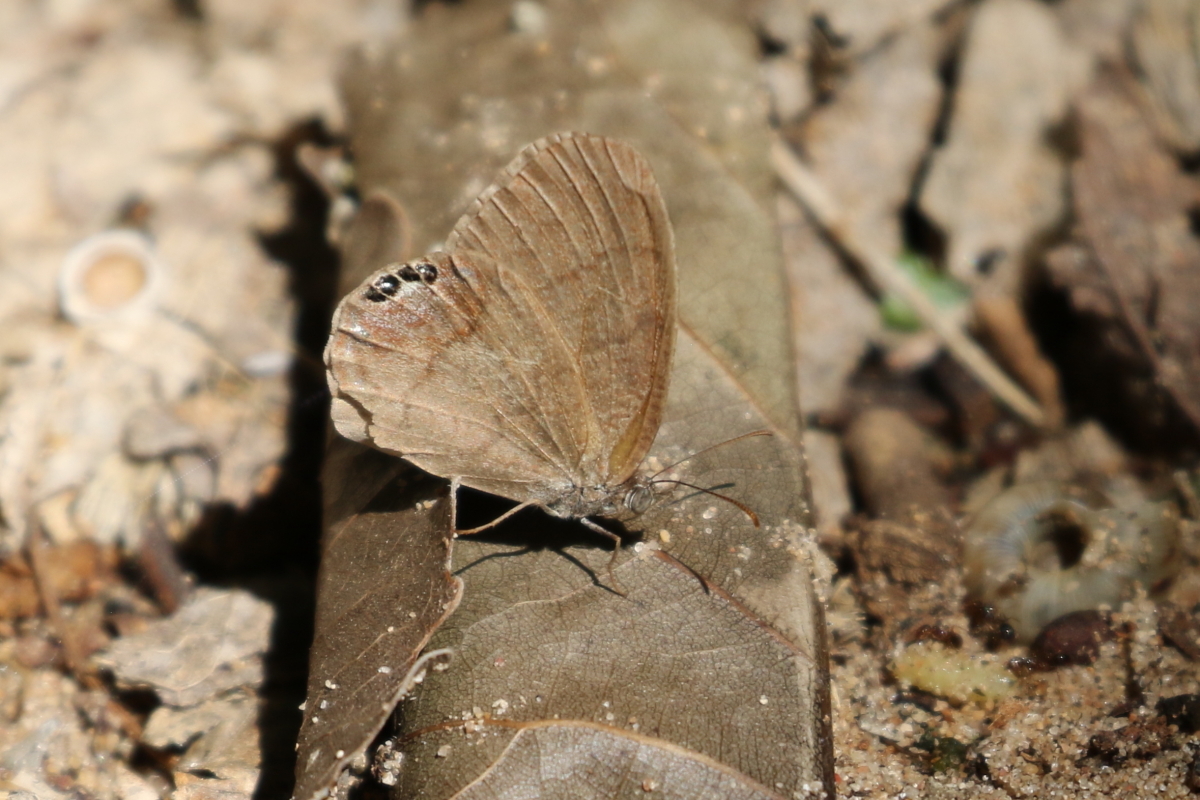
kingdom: Animalia
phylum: Arthropoda
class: Insecta
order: Lepidoptera
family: Nymphalidae
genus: Euptychia
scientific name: Euptychia cornelius
